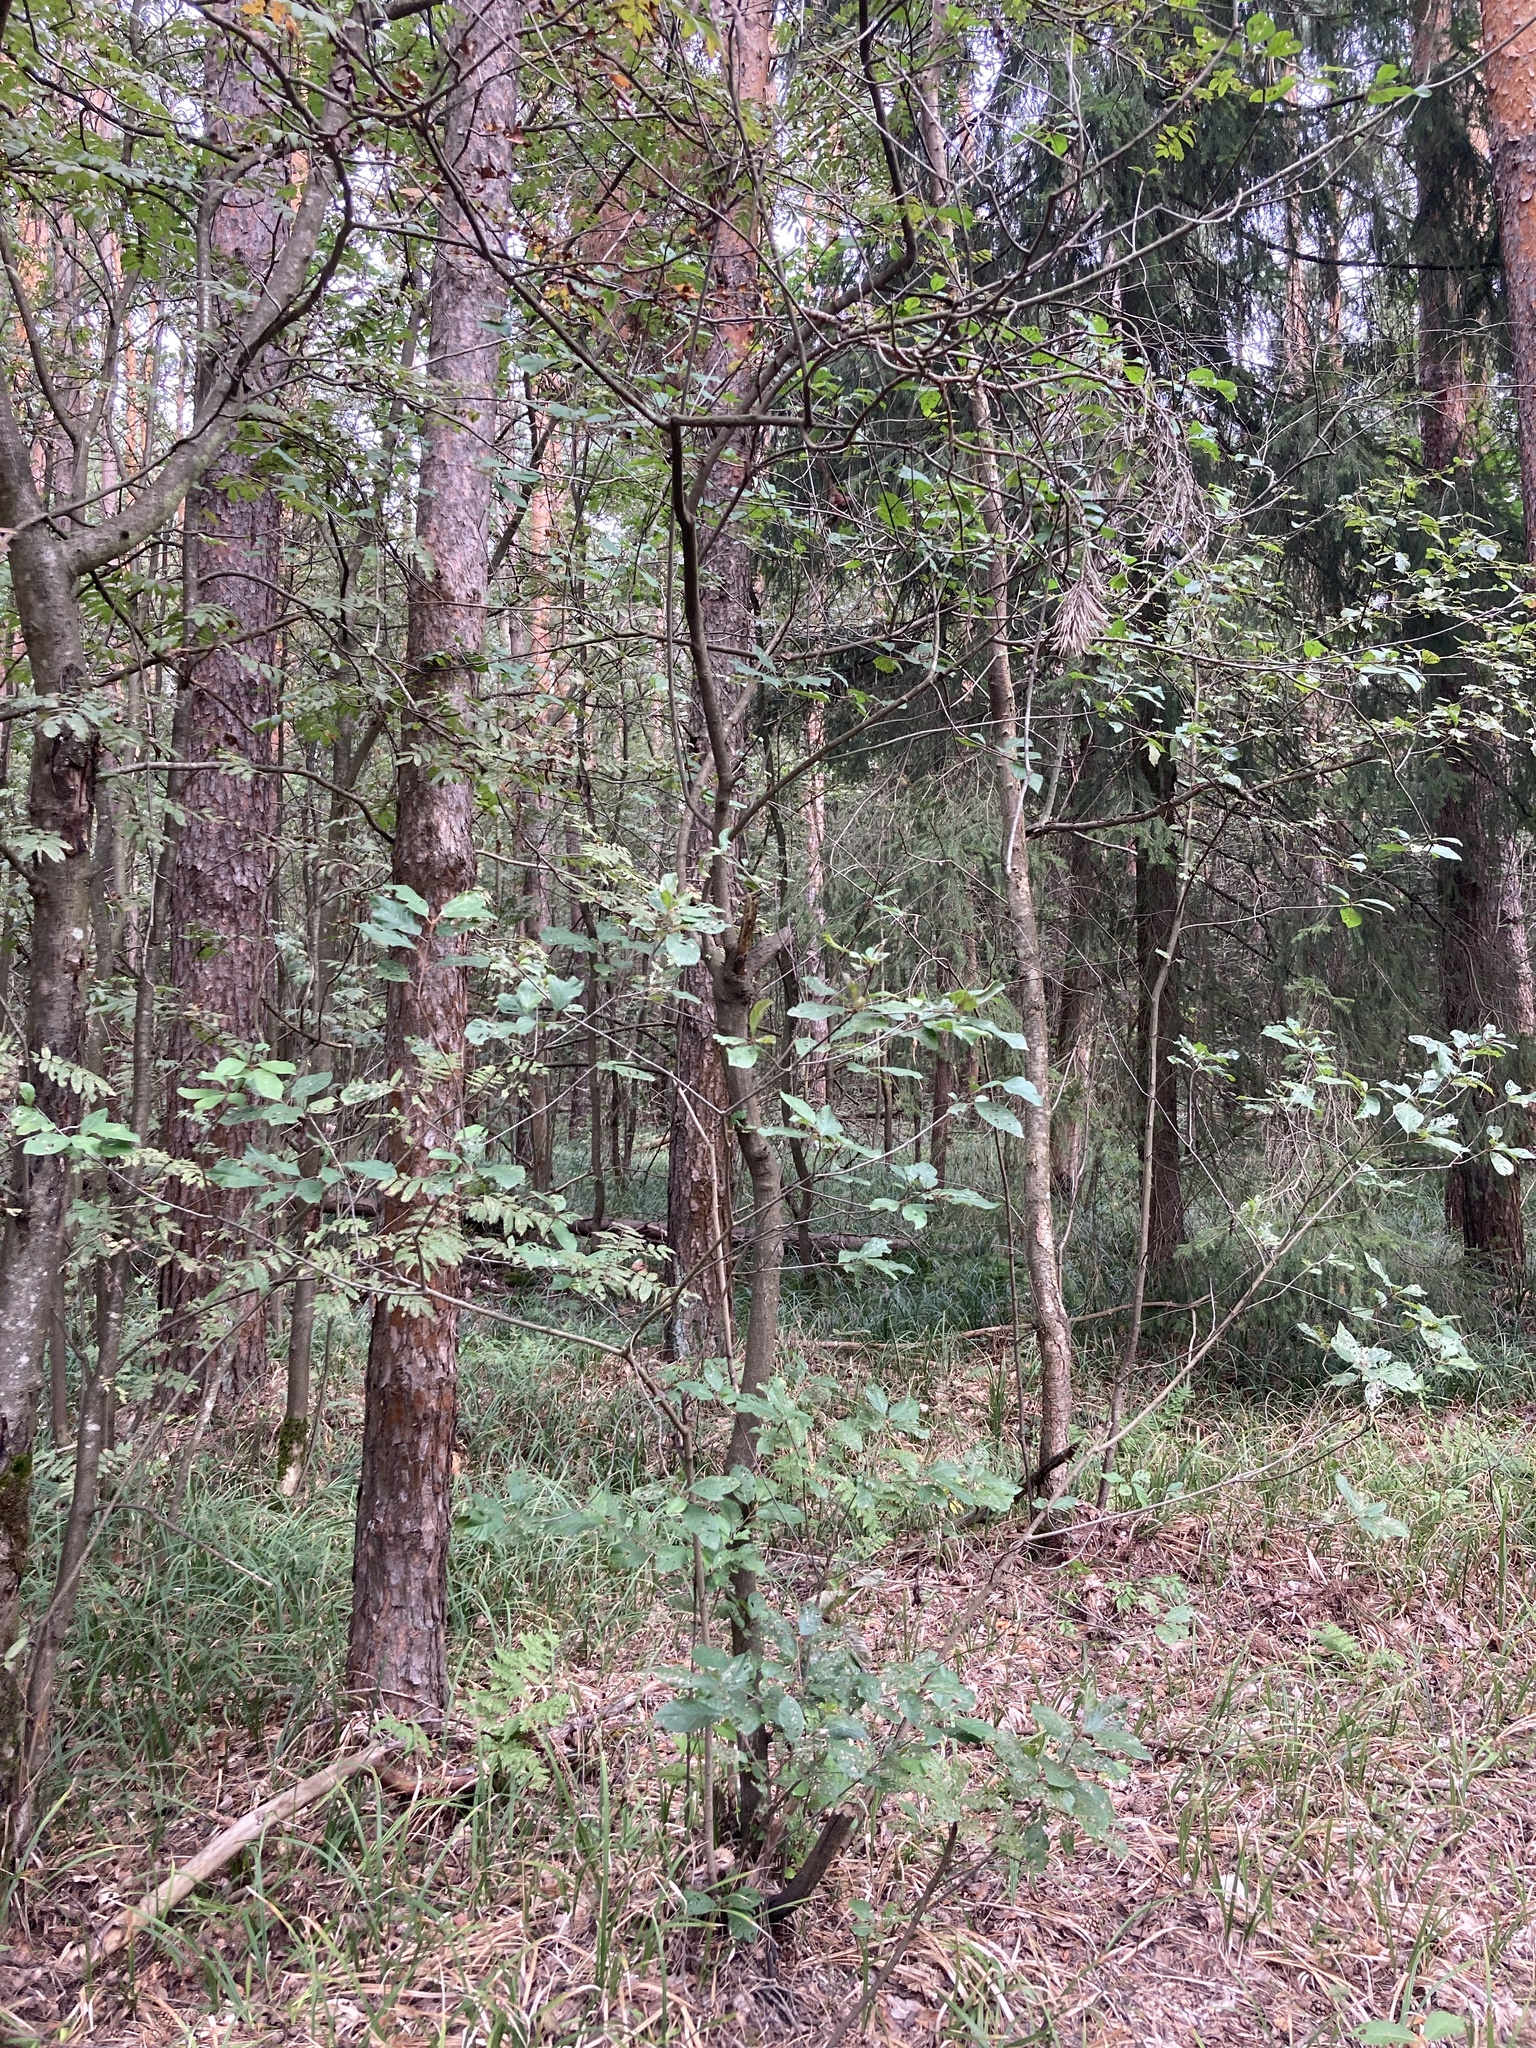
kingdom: Plantae
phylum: Tracheophyta
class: Magnoliopsida
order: Rosales
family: Rhamnaceae
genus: Frangula
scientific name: Frangula alnus
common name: Alder buckthorn
